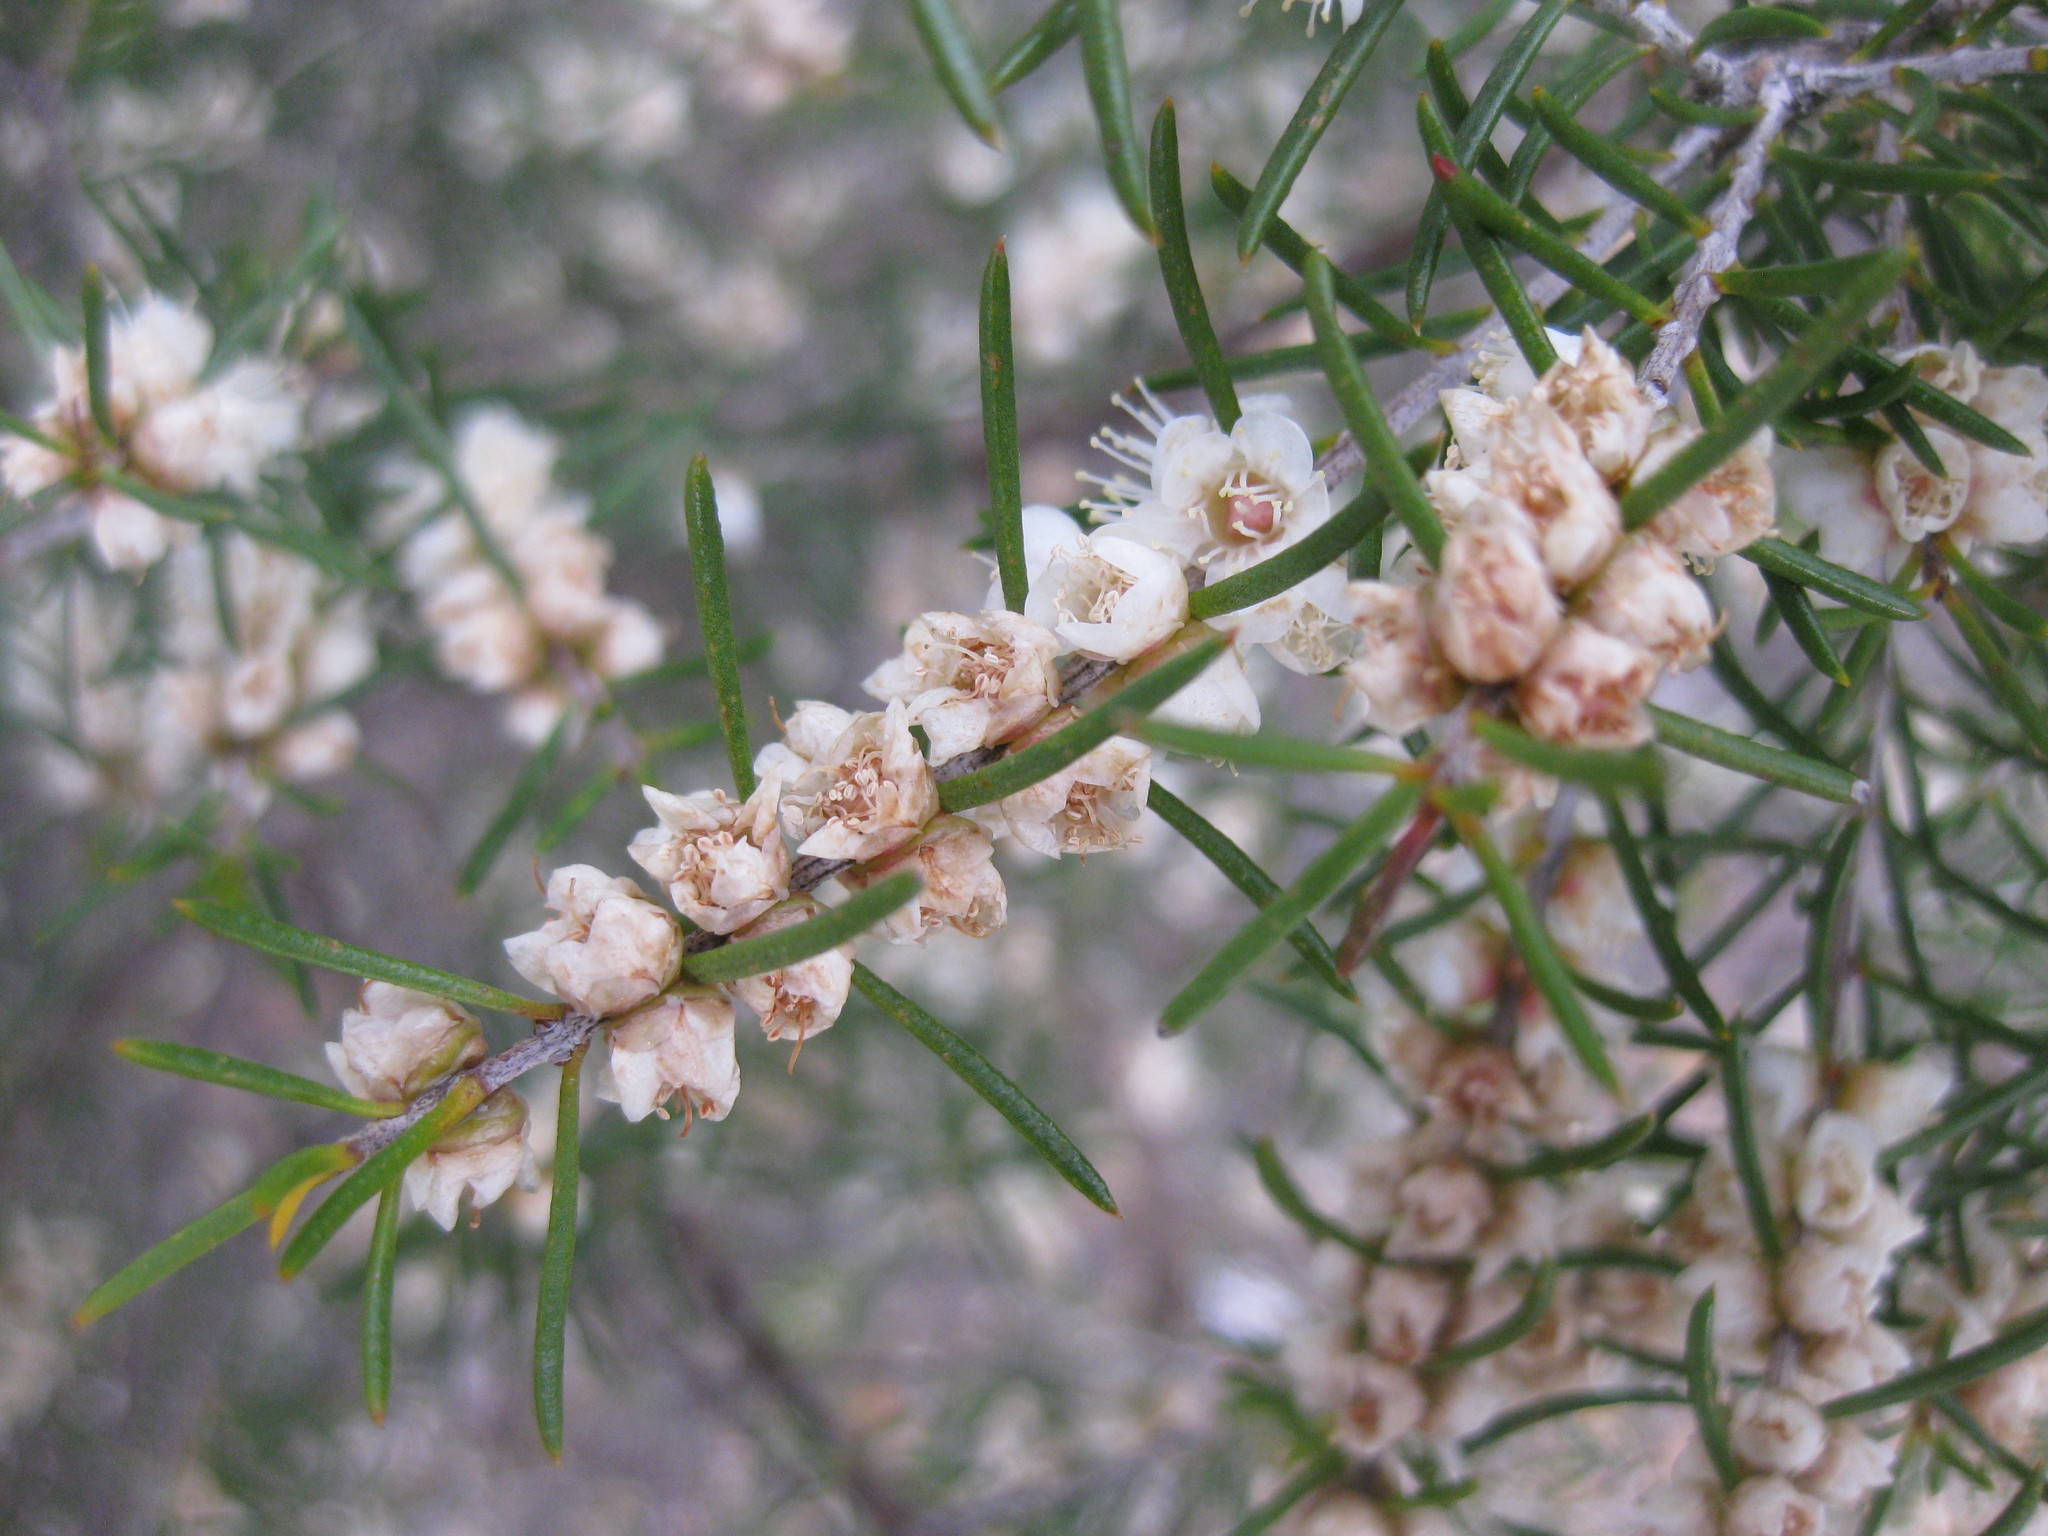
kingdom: Plantae
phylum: Tracheophyta
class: Magnoliopsida
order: Myrtales
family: Myrtaceae
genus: Hypocalymma
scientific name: Hypocalymma angustifolium
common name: White myrtle
